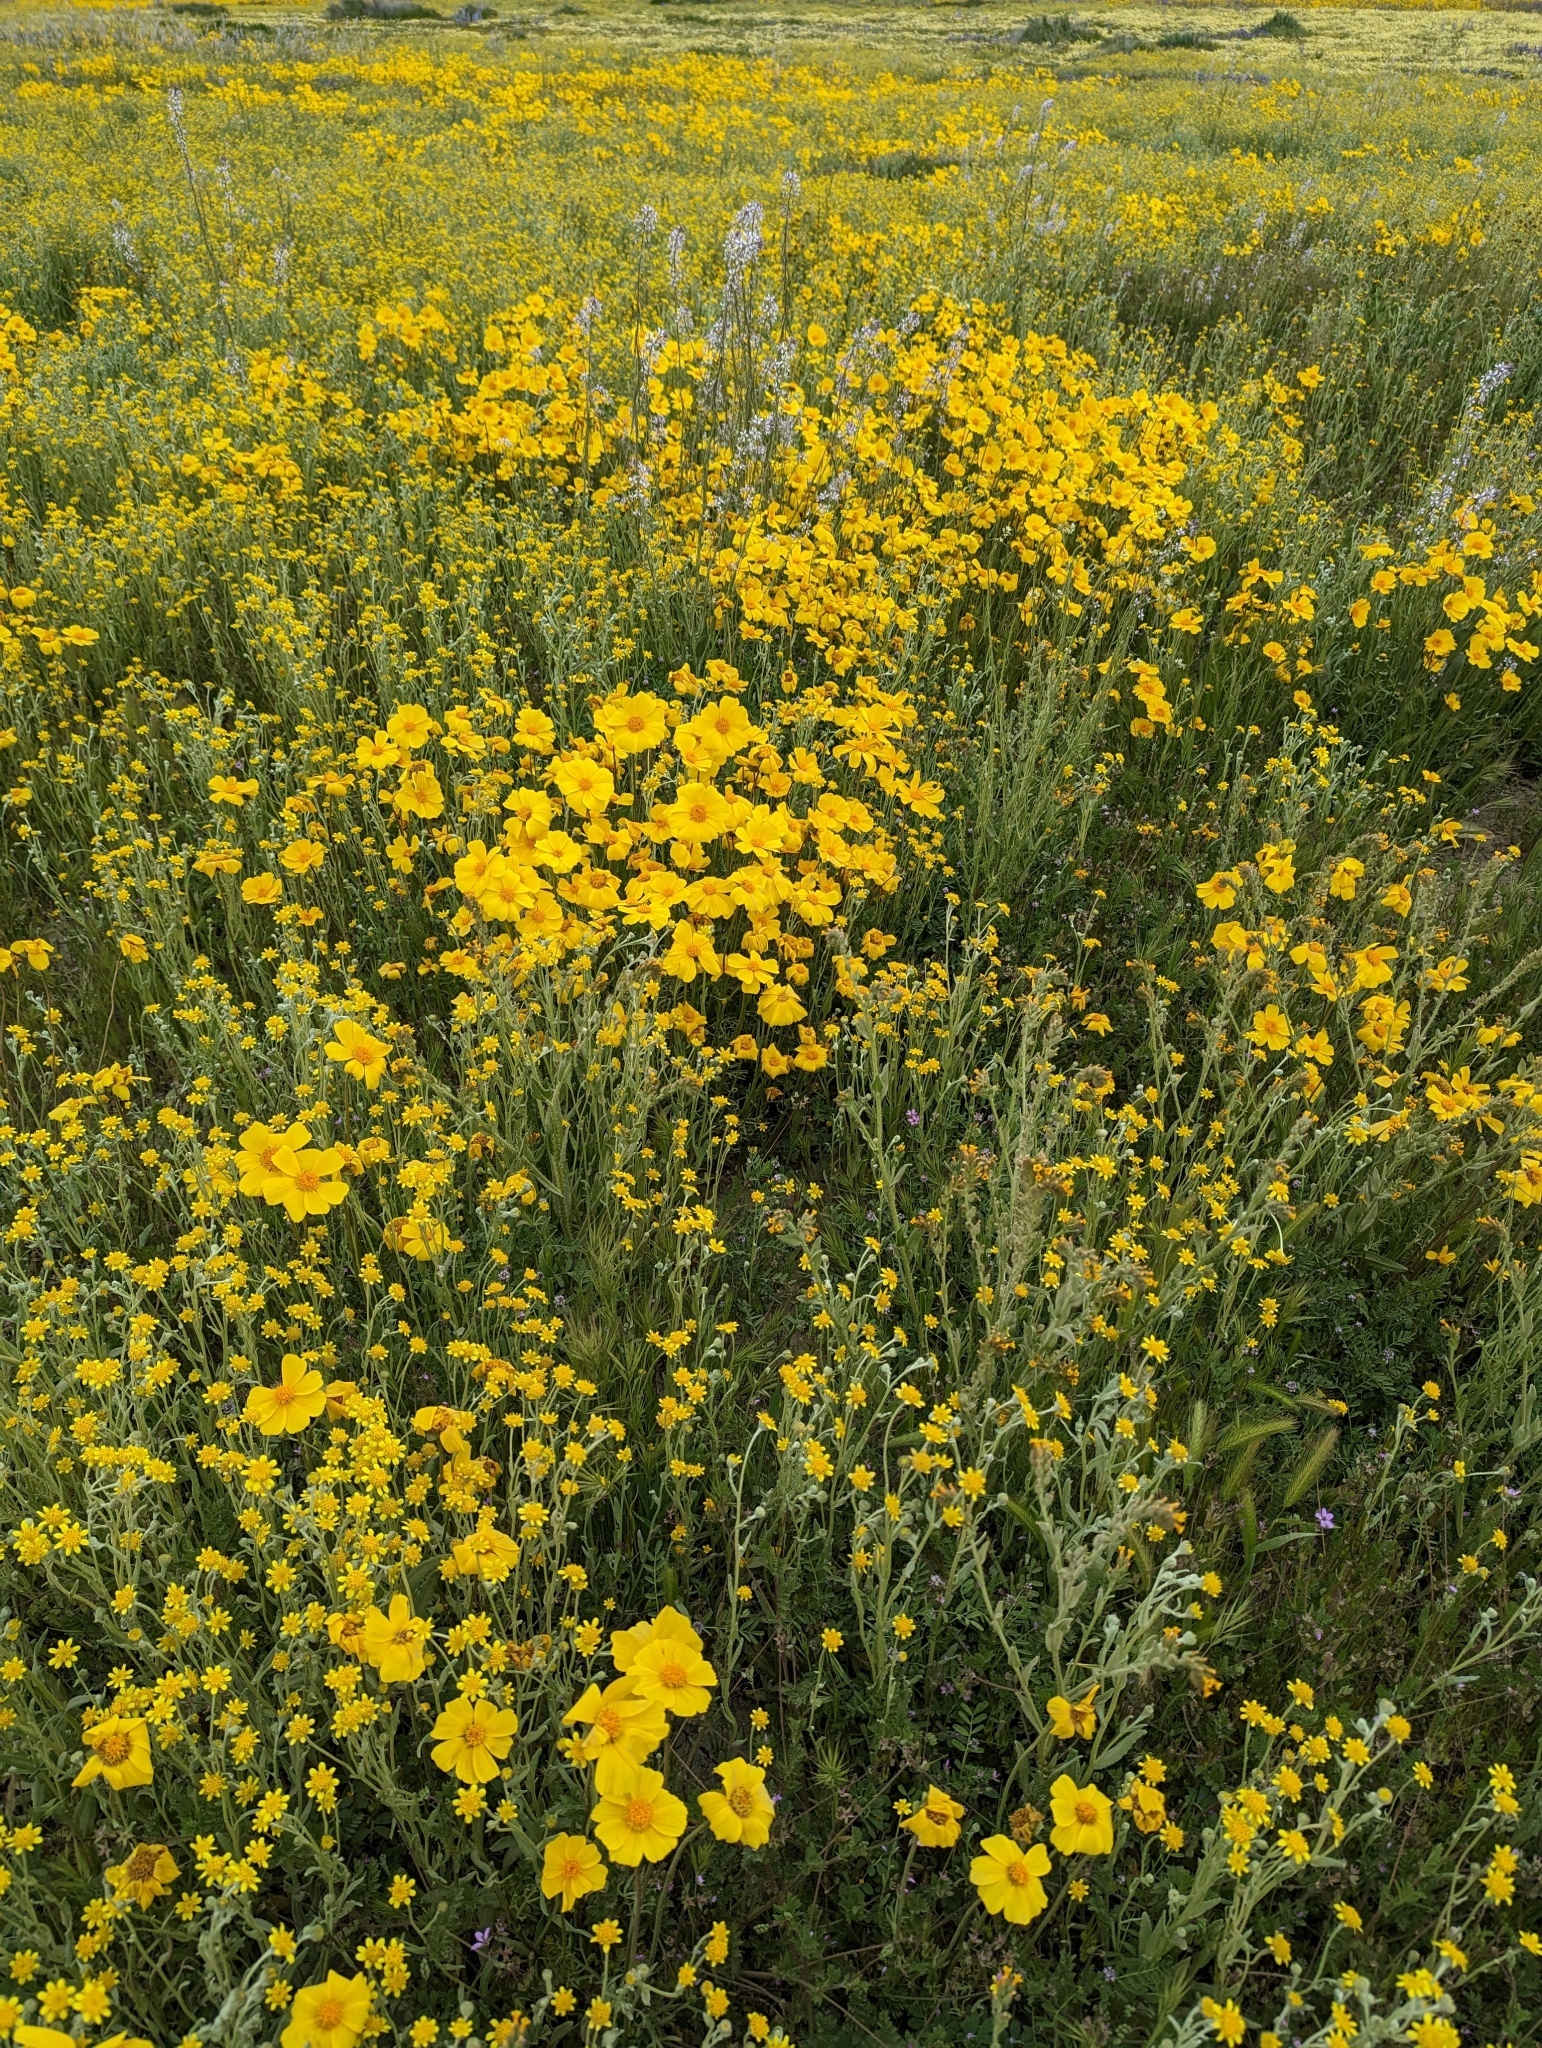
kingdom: Plantae
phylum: Tracheophyta
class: Magnoliopsida
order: Asterales
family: Asteraceae
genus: Coreopsis
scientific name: Coreopsis calliopsidea
